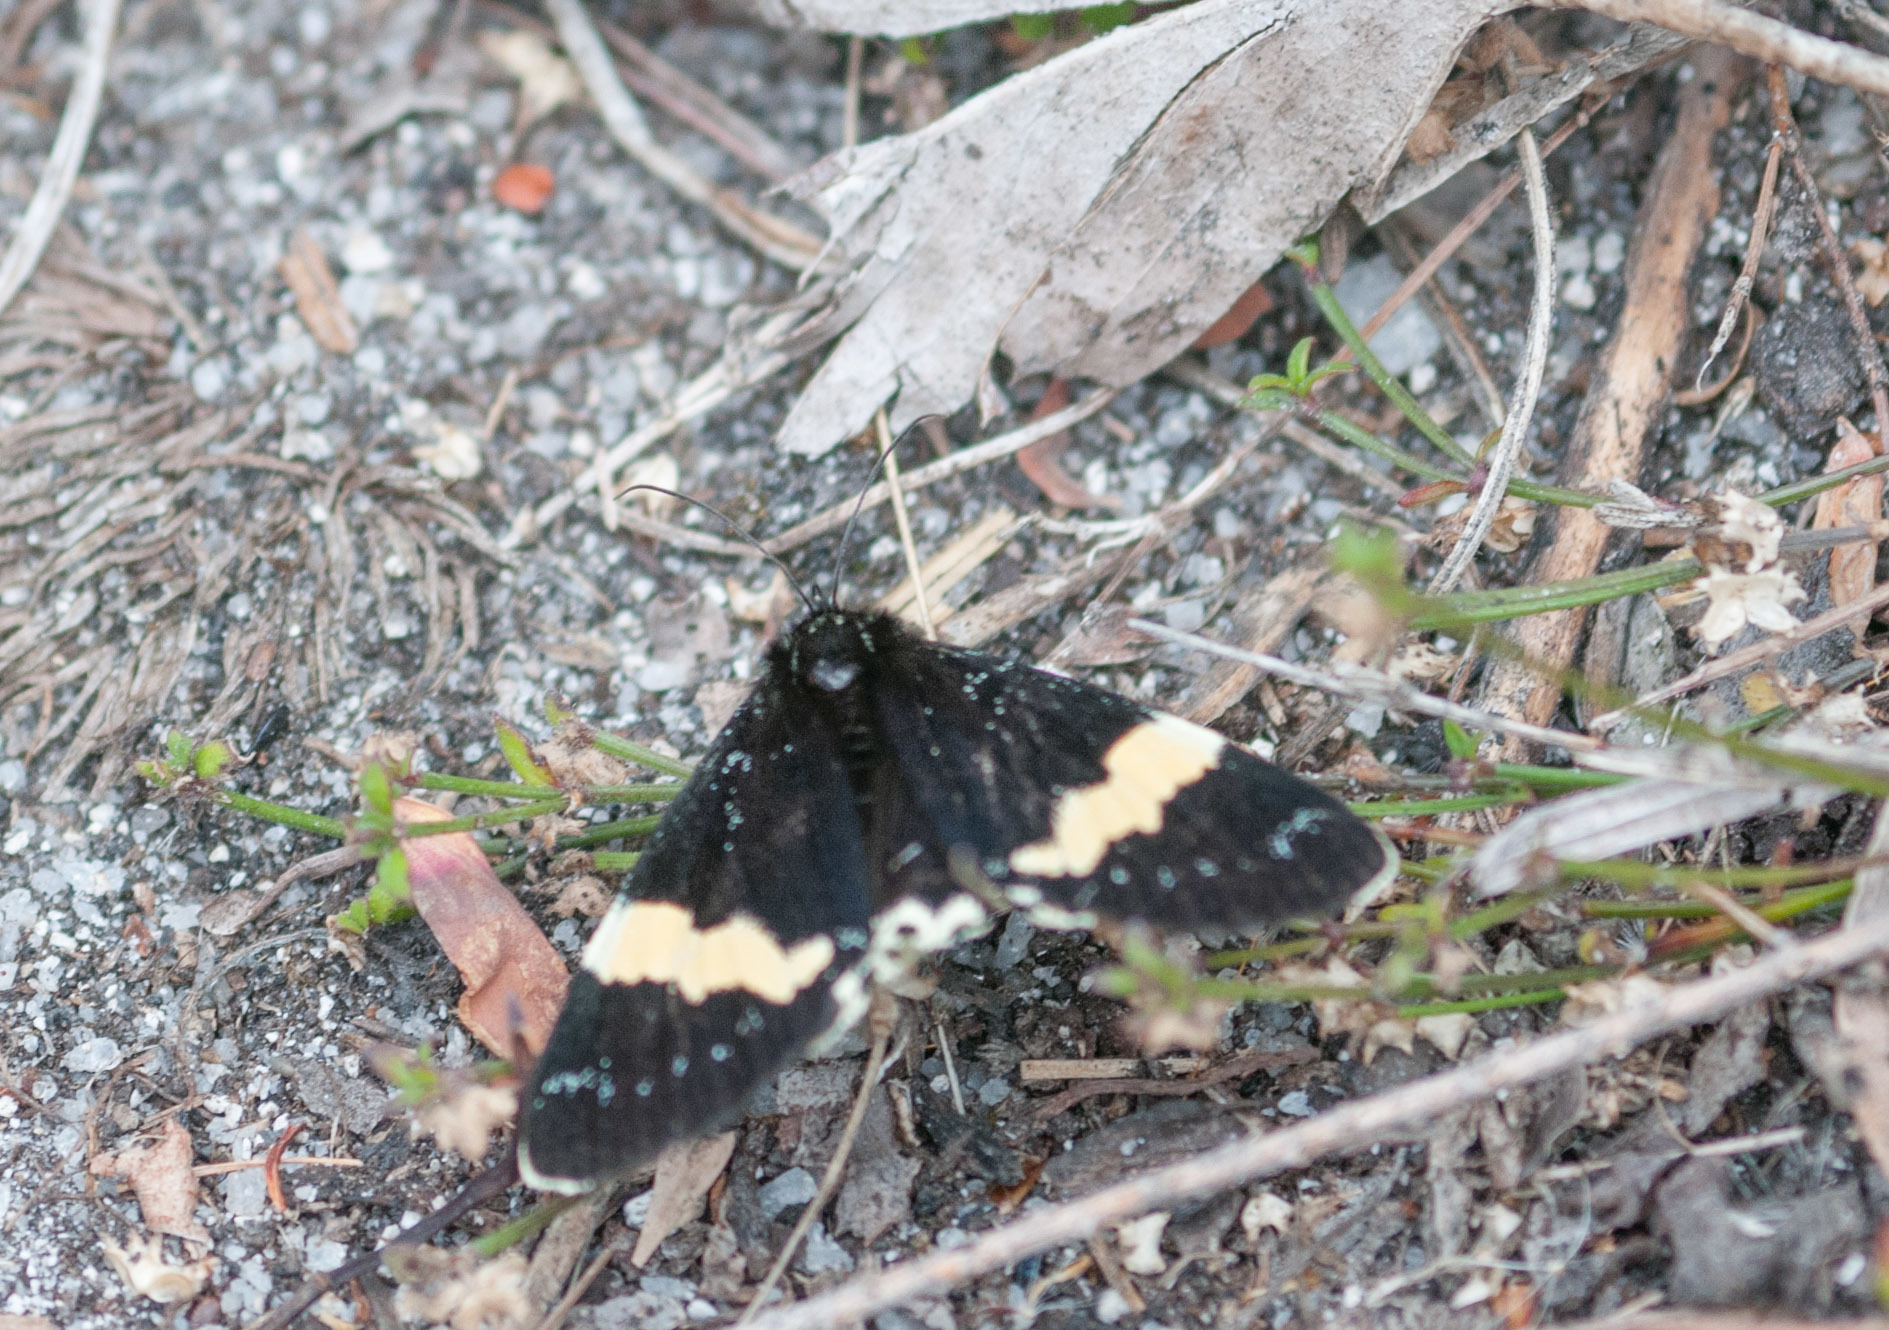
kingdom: Animalia
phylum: Arthropoda
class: Insecta
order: Lepidoptera
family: Noctuidae
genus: Eutrichopidia
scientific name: Eutrichopidia latinus
